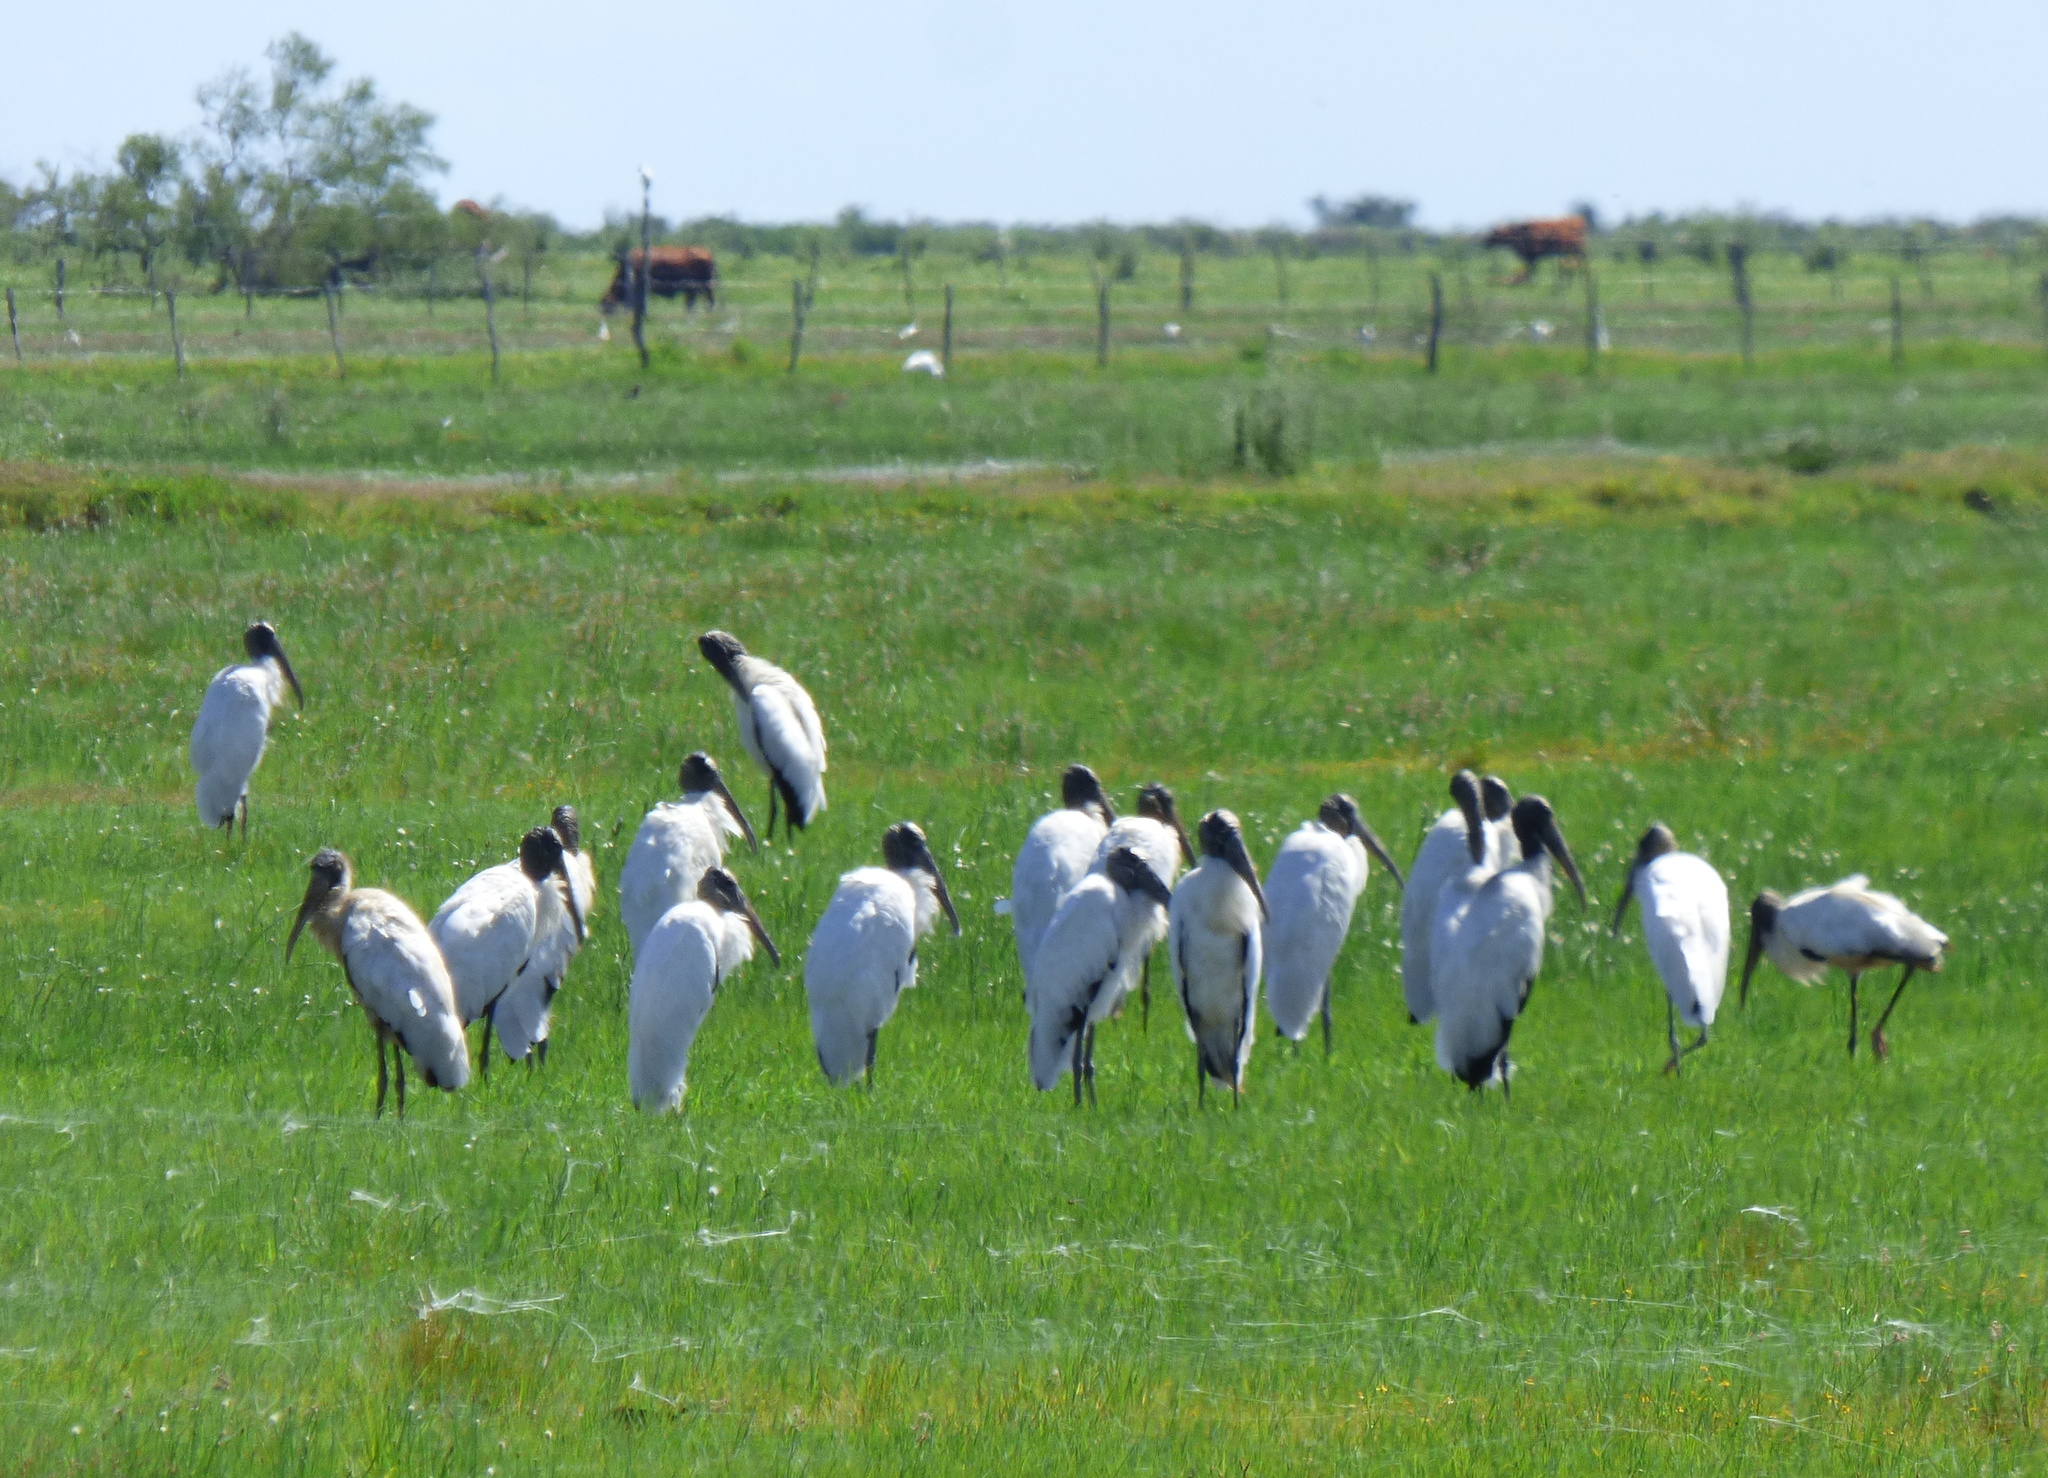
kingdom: Animalia
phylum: Chordata
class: Aves
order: Ciconiiformes
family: Ciconiidae
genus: Mycteria
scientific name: Mycteria americana
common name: Wood stork
